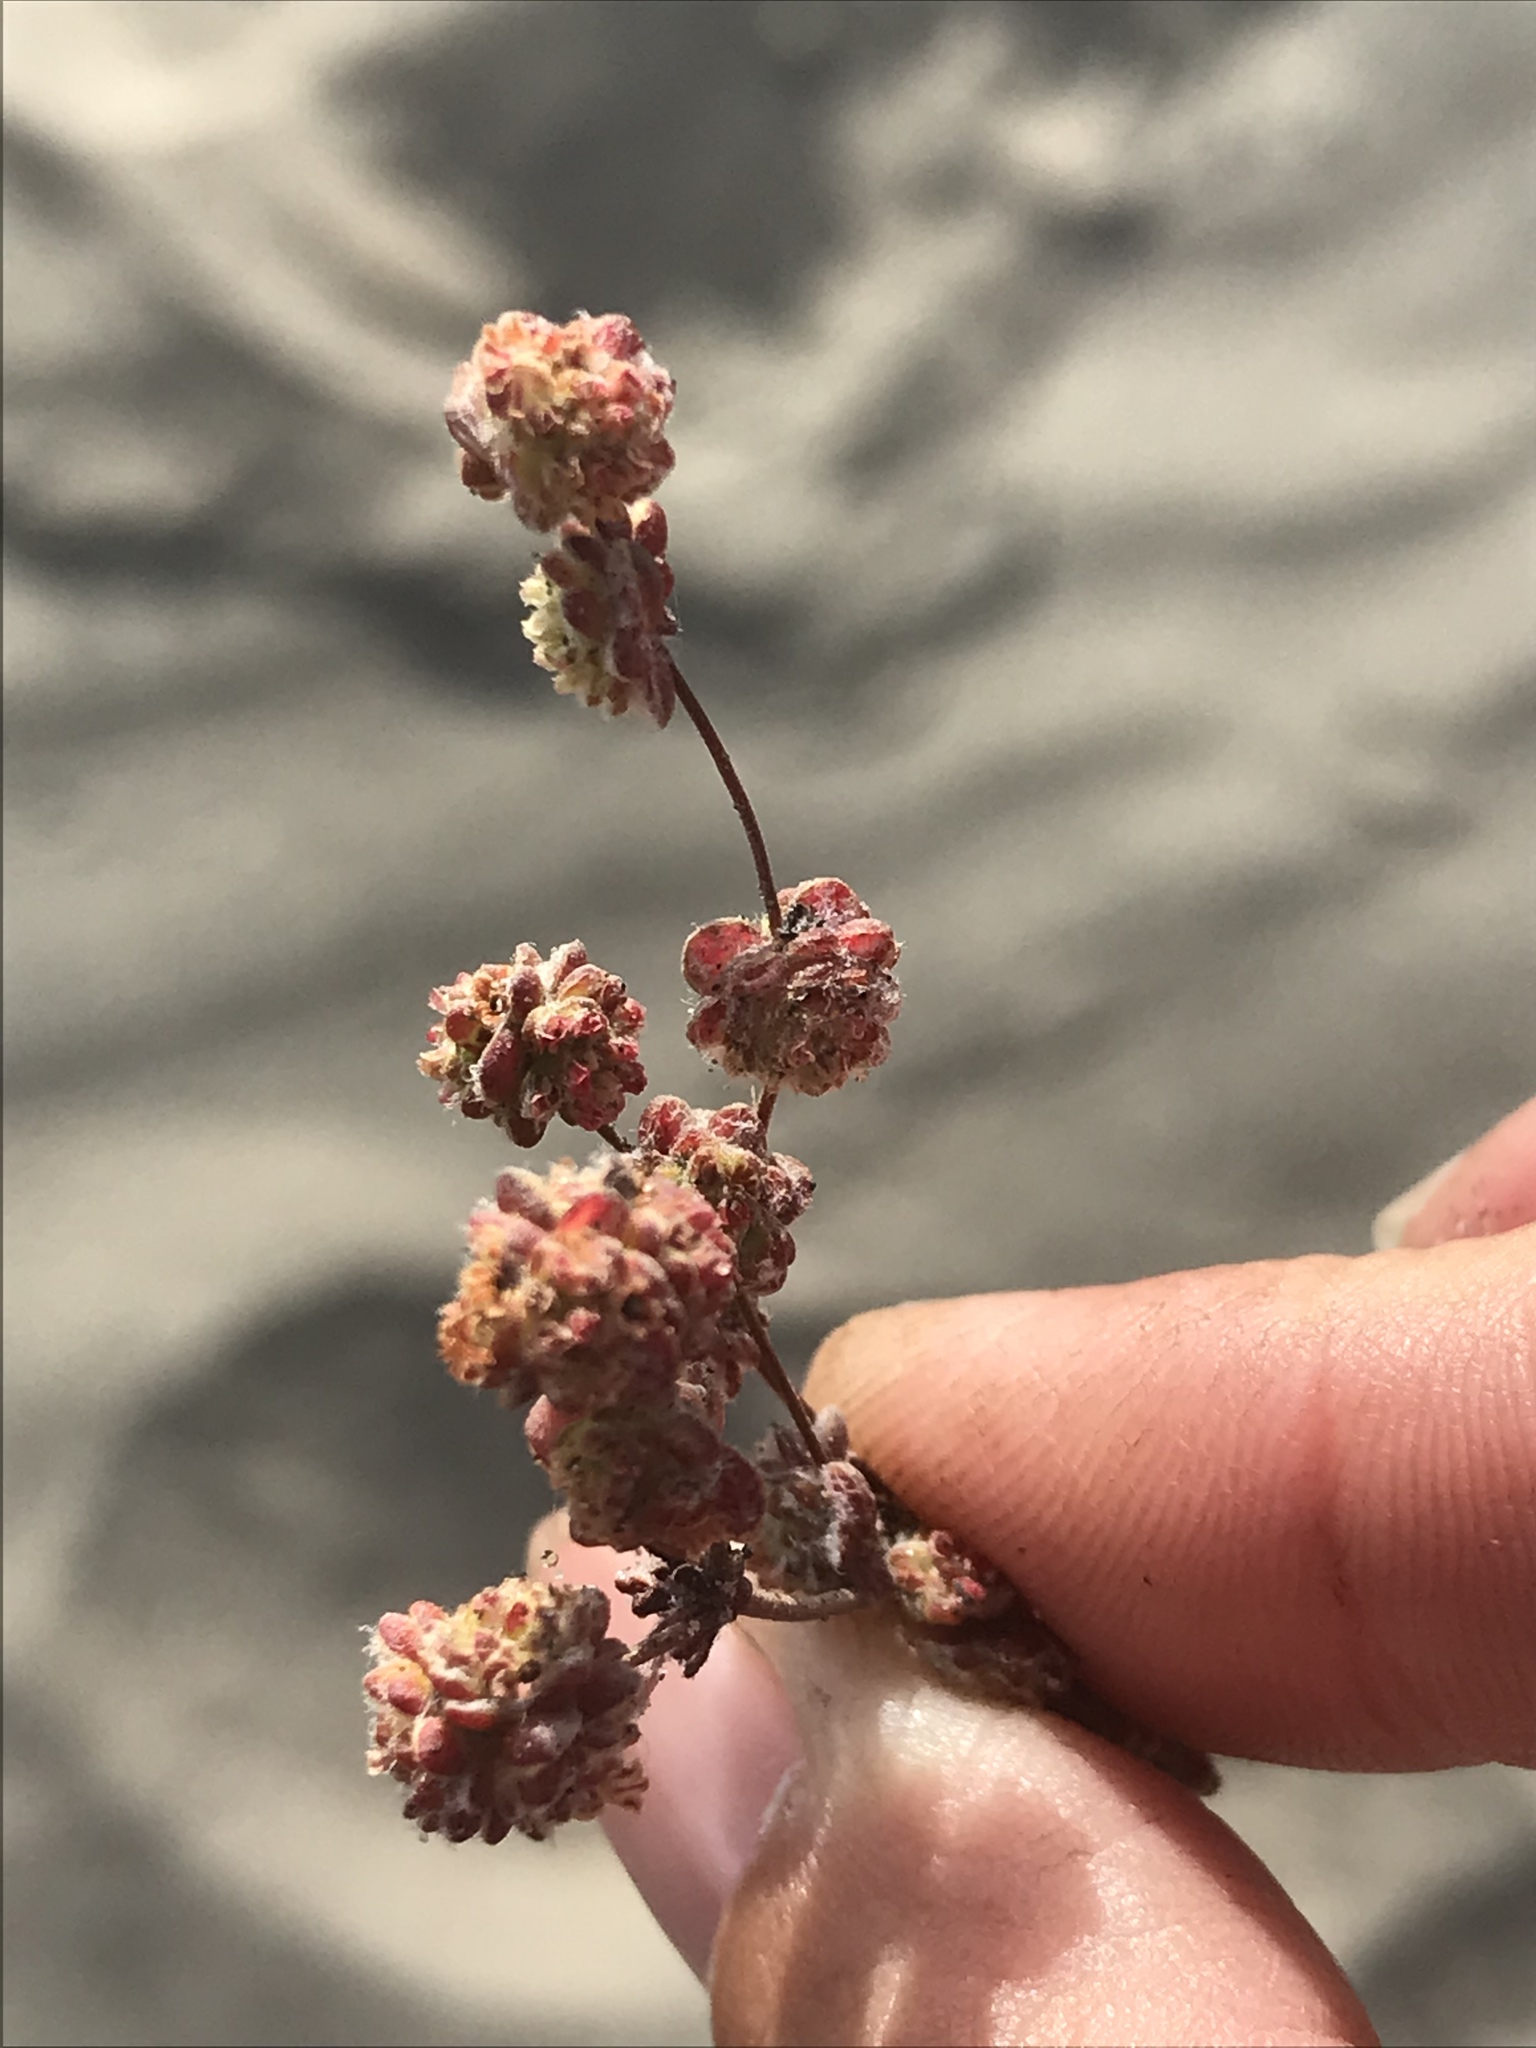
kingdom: Plantae
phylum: Tracheophyta
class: Magnoliopsida
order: Caryophyllales
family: Polygonaceae
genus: Nemacaulis
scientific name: Nemacaulis denudata
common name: Woolly-heads
